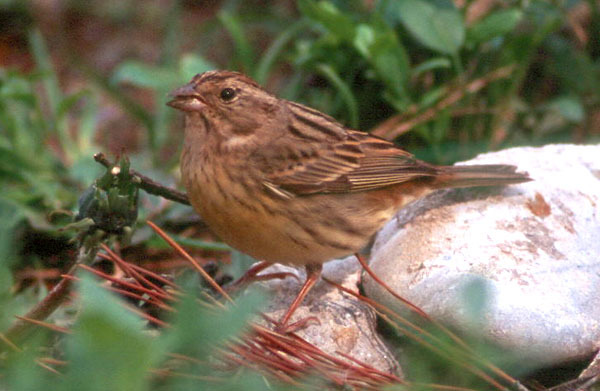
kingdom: Animalia
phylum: Chordata
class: Aves
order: Passeriformes
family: Emberizidae
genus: Emberiza
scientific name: Emberiza rutila
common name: Chestnut bunting
